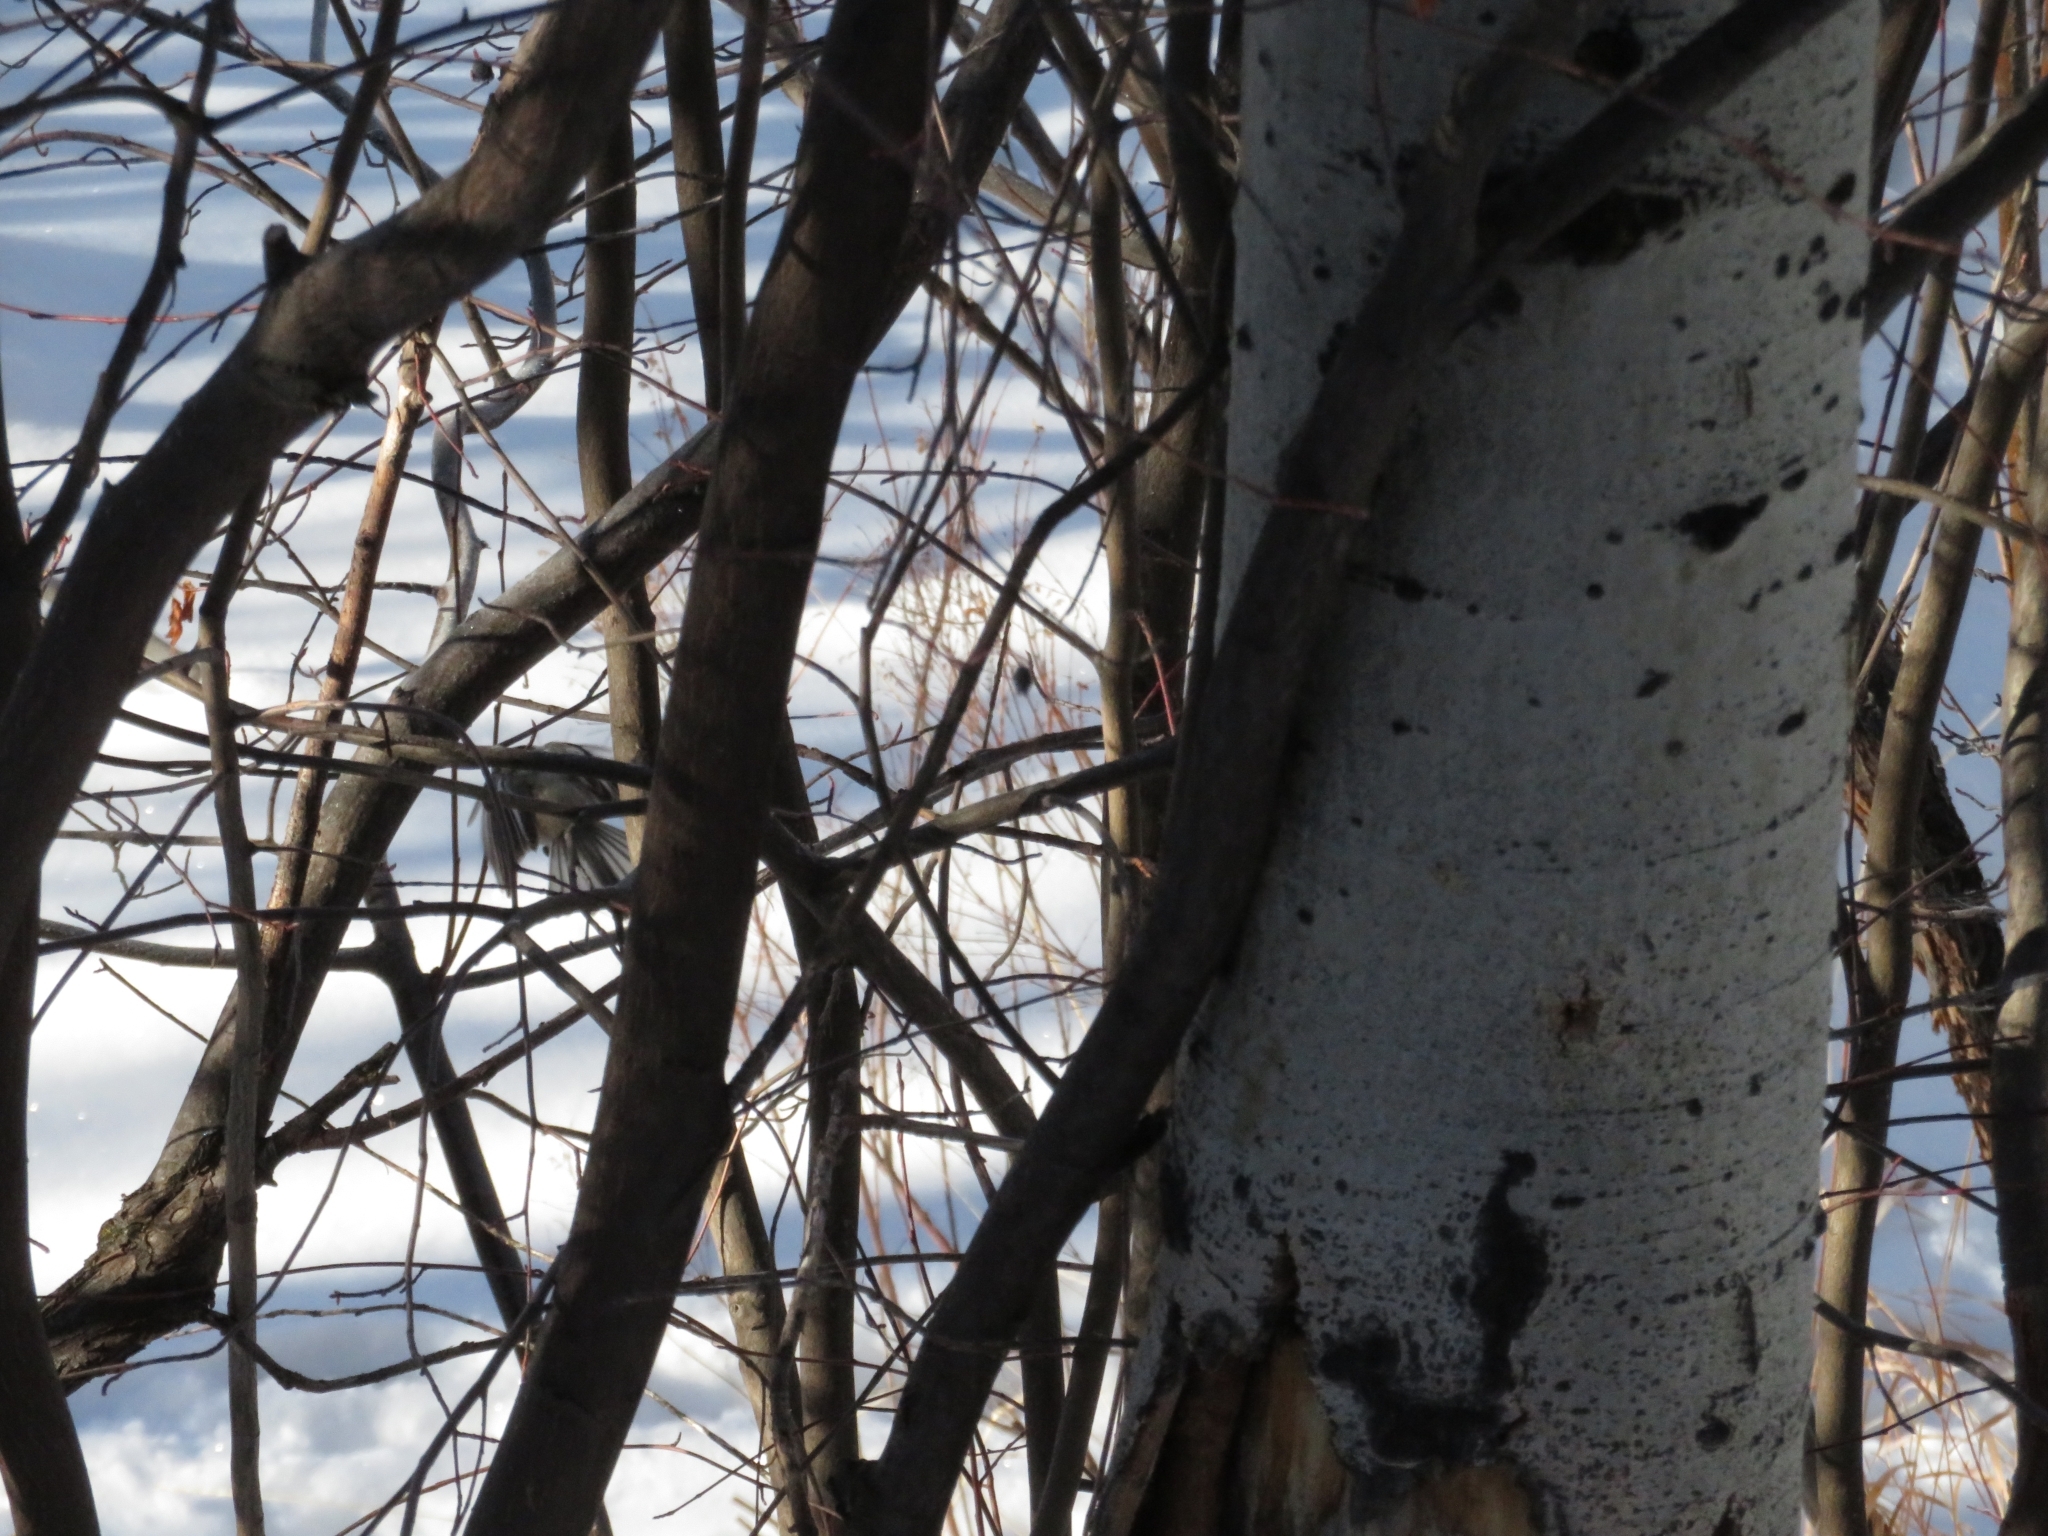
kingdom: Animalia
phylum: Chordata
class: Aves
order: Passeriformes
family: Paridae
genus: Poecile
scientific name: Poecile atricapillus
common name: Black-capped chickadee
